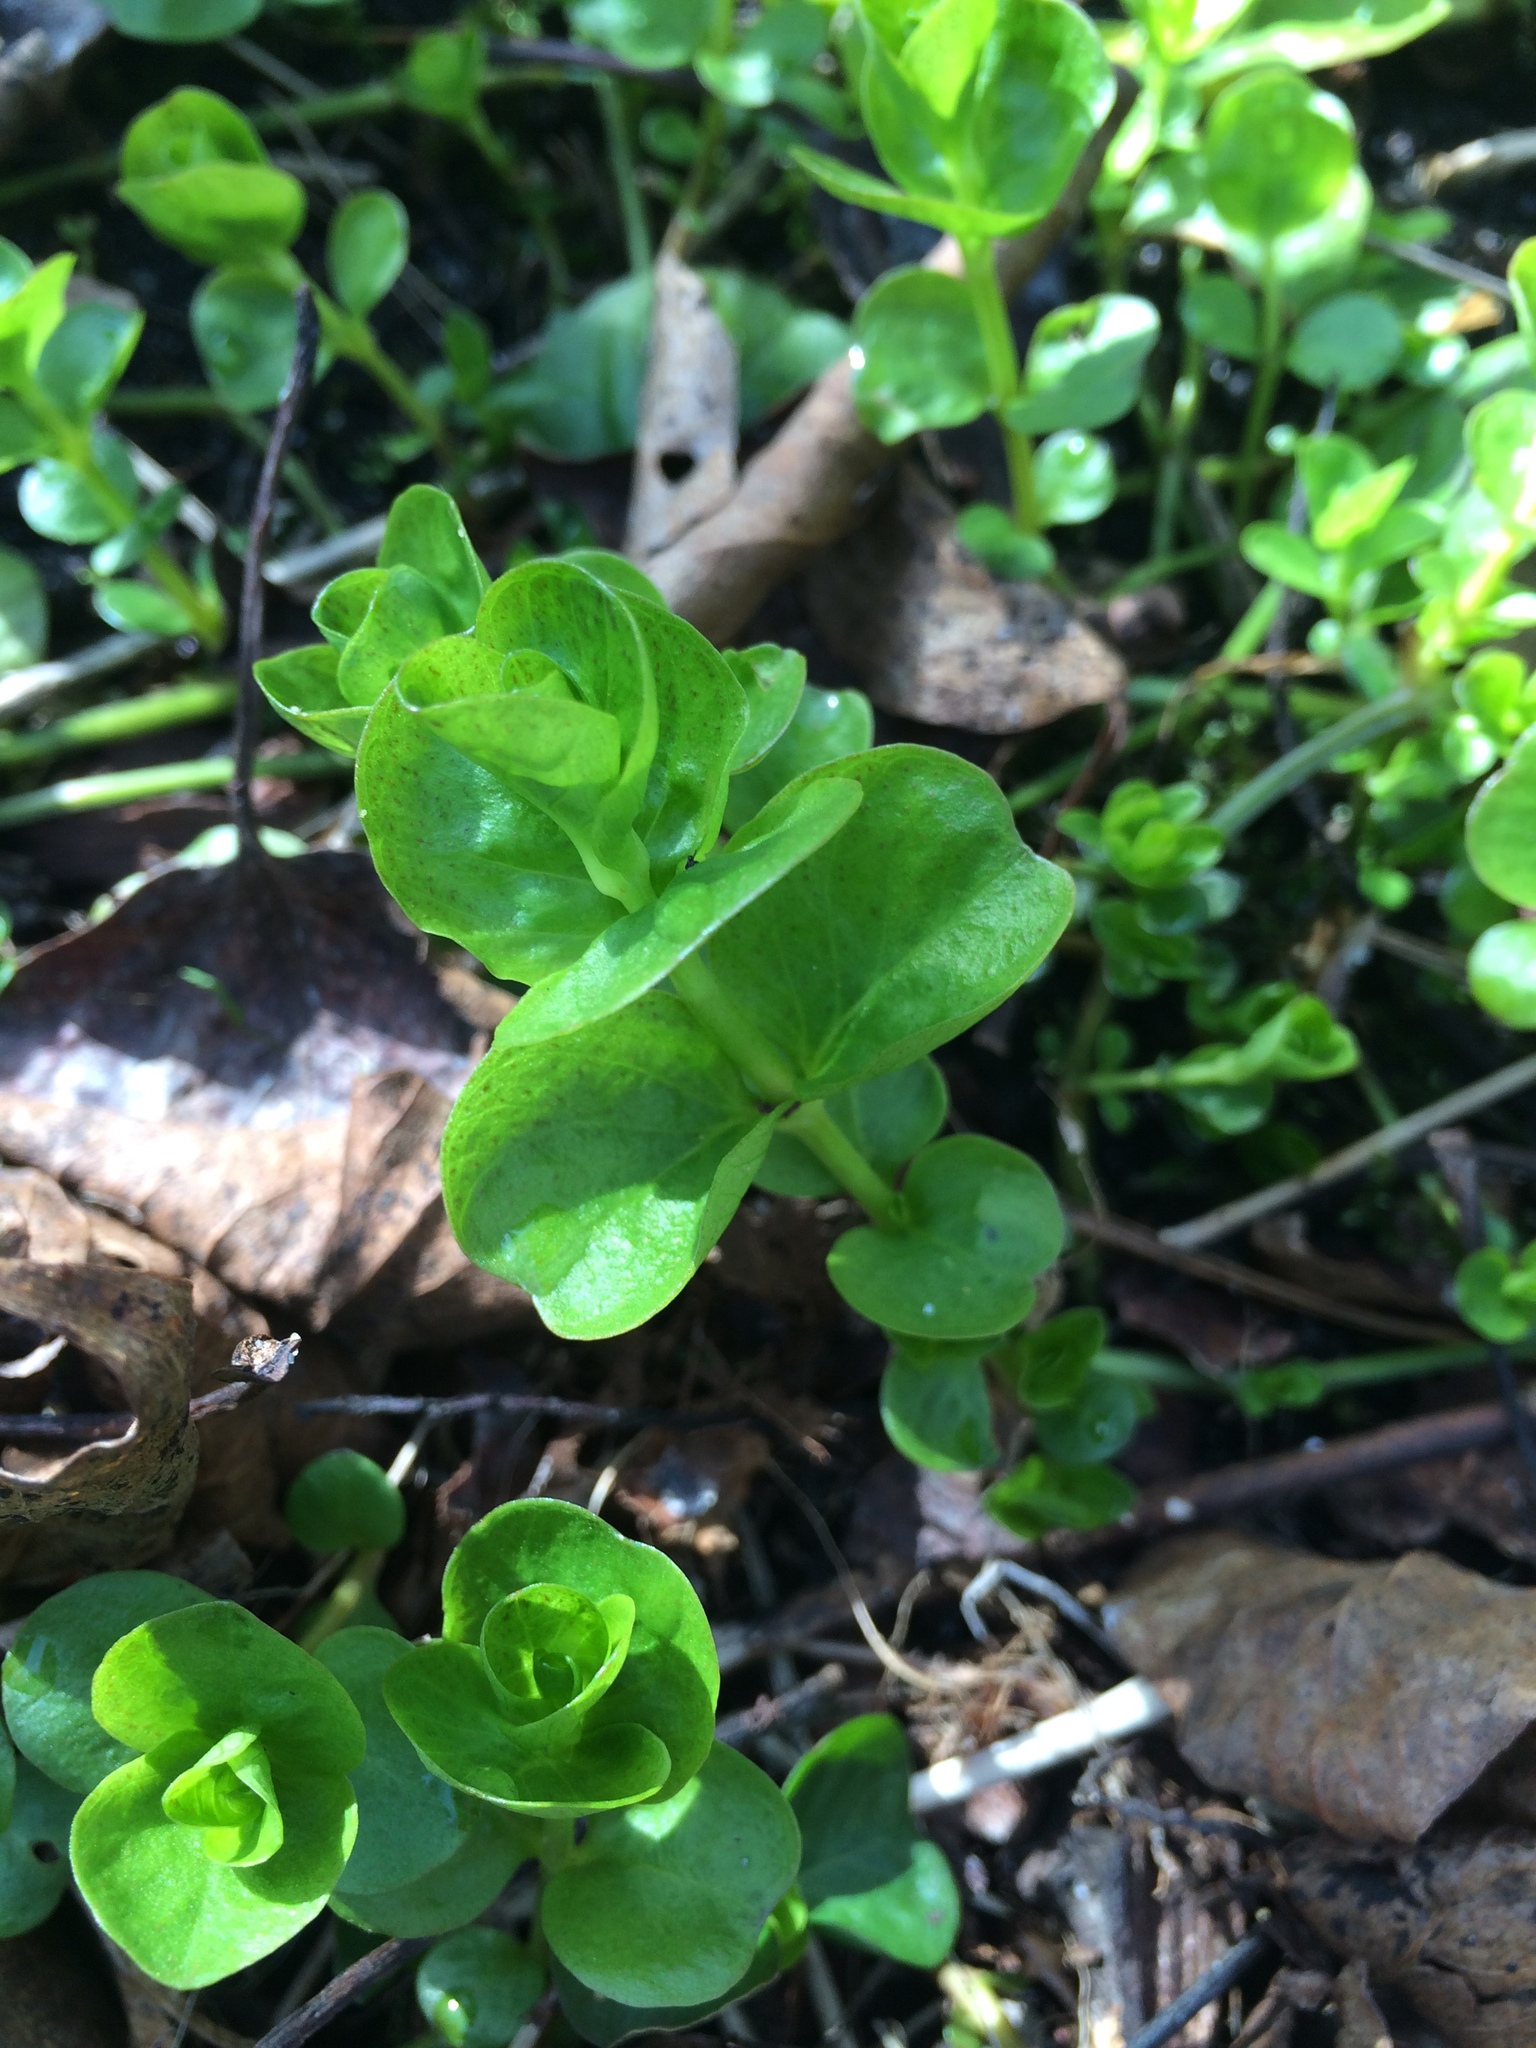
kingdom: Plantae
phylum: Tracheophyta
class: Magnoliopsida
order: Ericales
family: Primulaceae
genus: Lysimachia
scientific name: Lysimachia nummularia
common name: Moneywort
